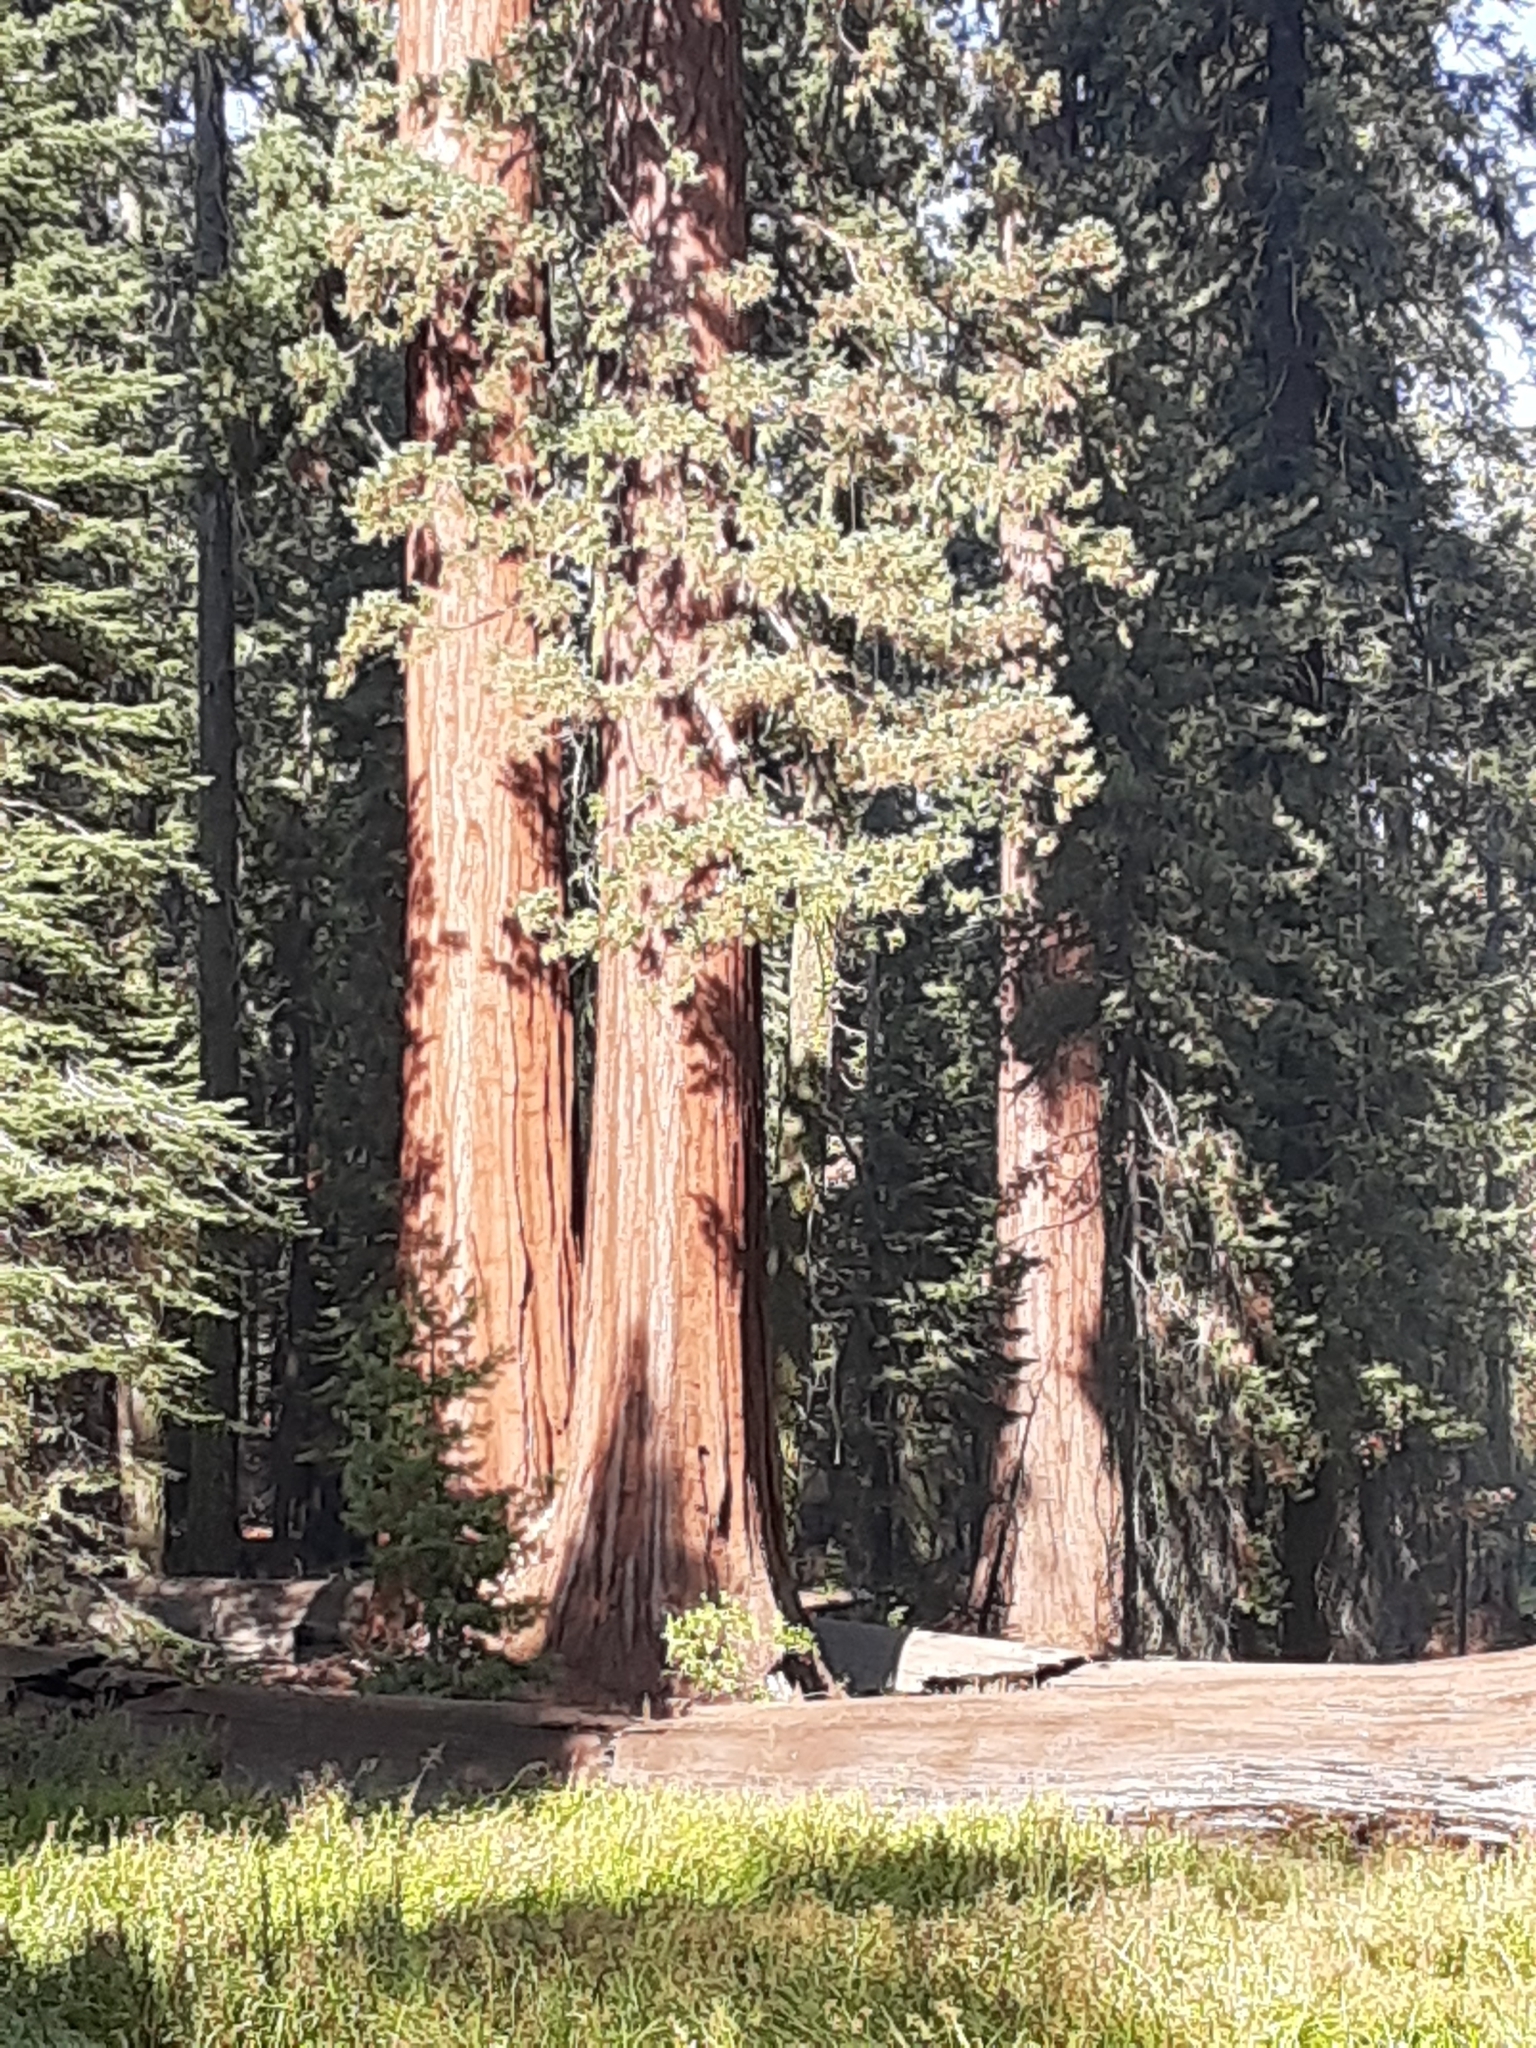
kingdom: Plantae
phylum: Tracheophyta
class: Pinopsida
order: Pinales
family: Cupressaceae
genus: Sequoiadendron
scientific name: Sequoiadendron giganteum
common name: Wellingtonia
